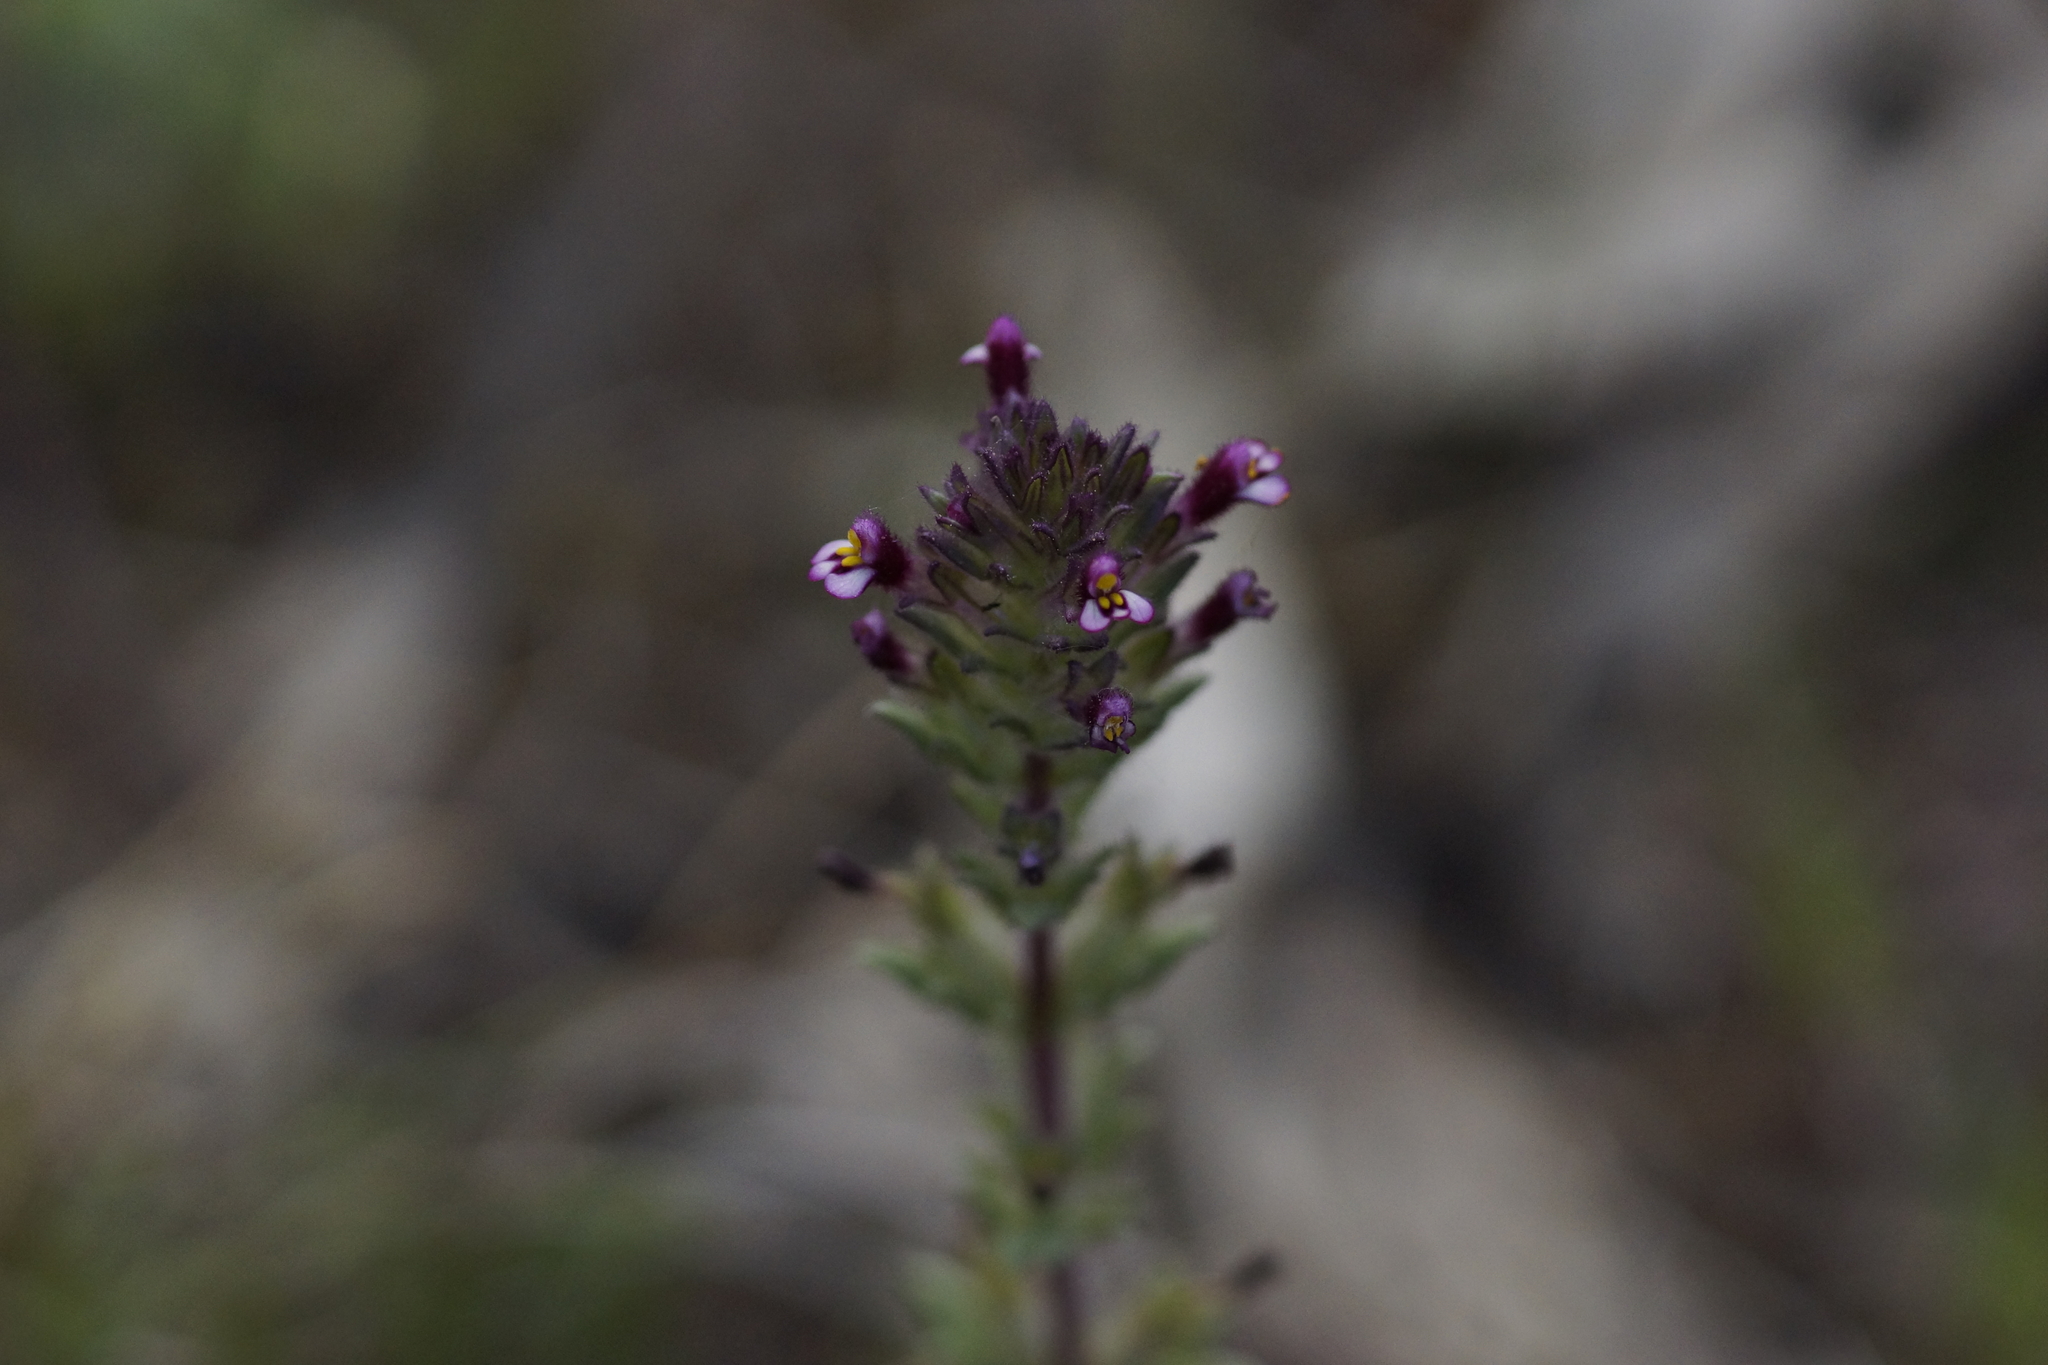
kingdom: Plantae
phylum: Tracheophyta
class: Magnoliopsida
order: Lamiales
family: Orobanchaceae
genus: Parentucellia
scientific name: Parentucellia latifolia
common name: Broadleaf glandweed
